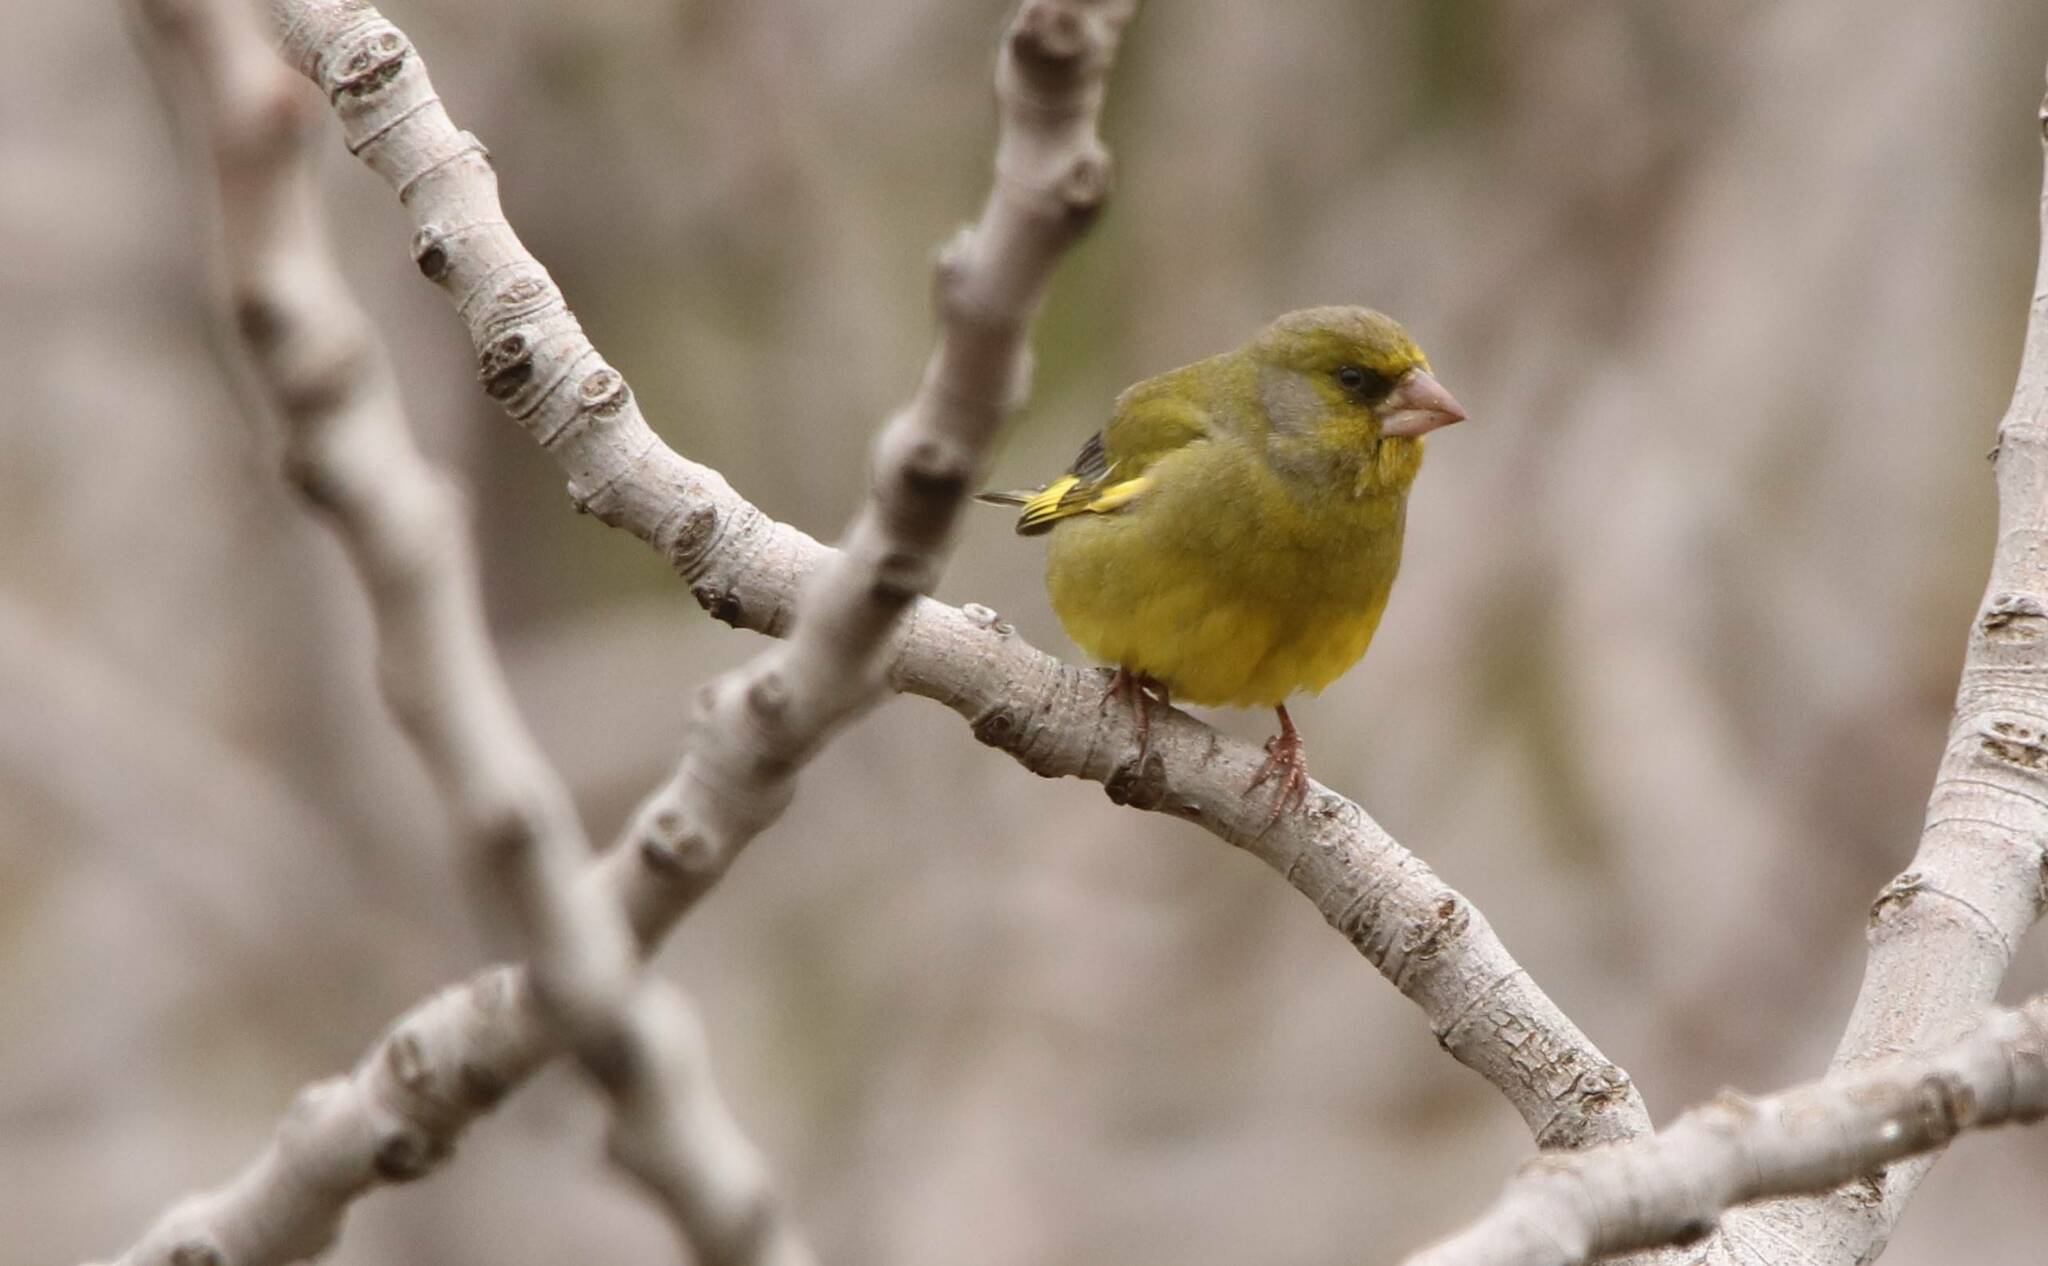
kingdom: Plantae
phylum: Tracheophyta
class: Liliopsida
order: Poales
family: Poaceae
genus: Chloris
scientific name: Chloris chloris
